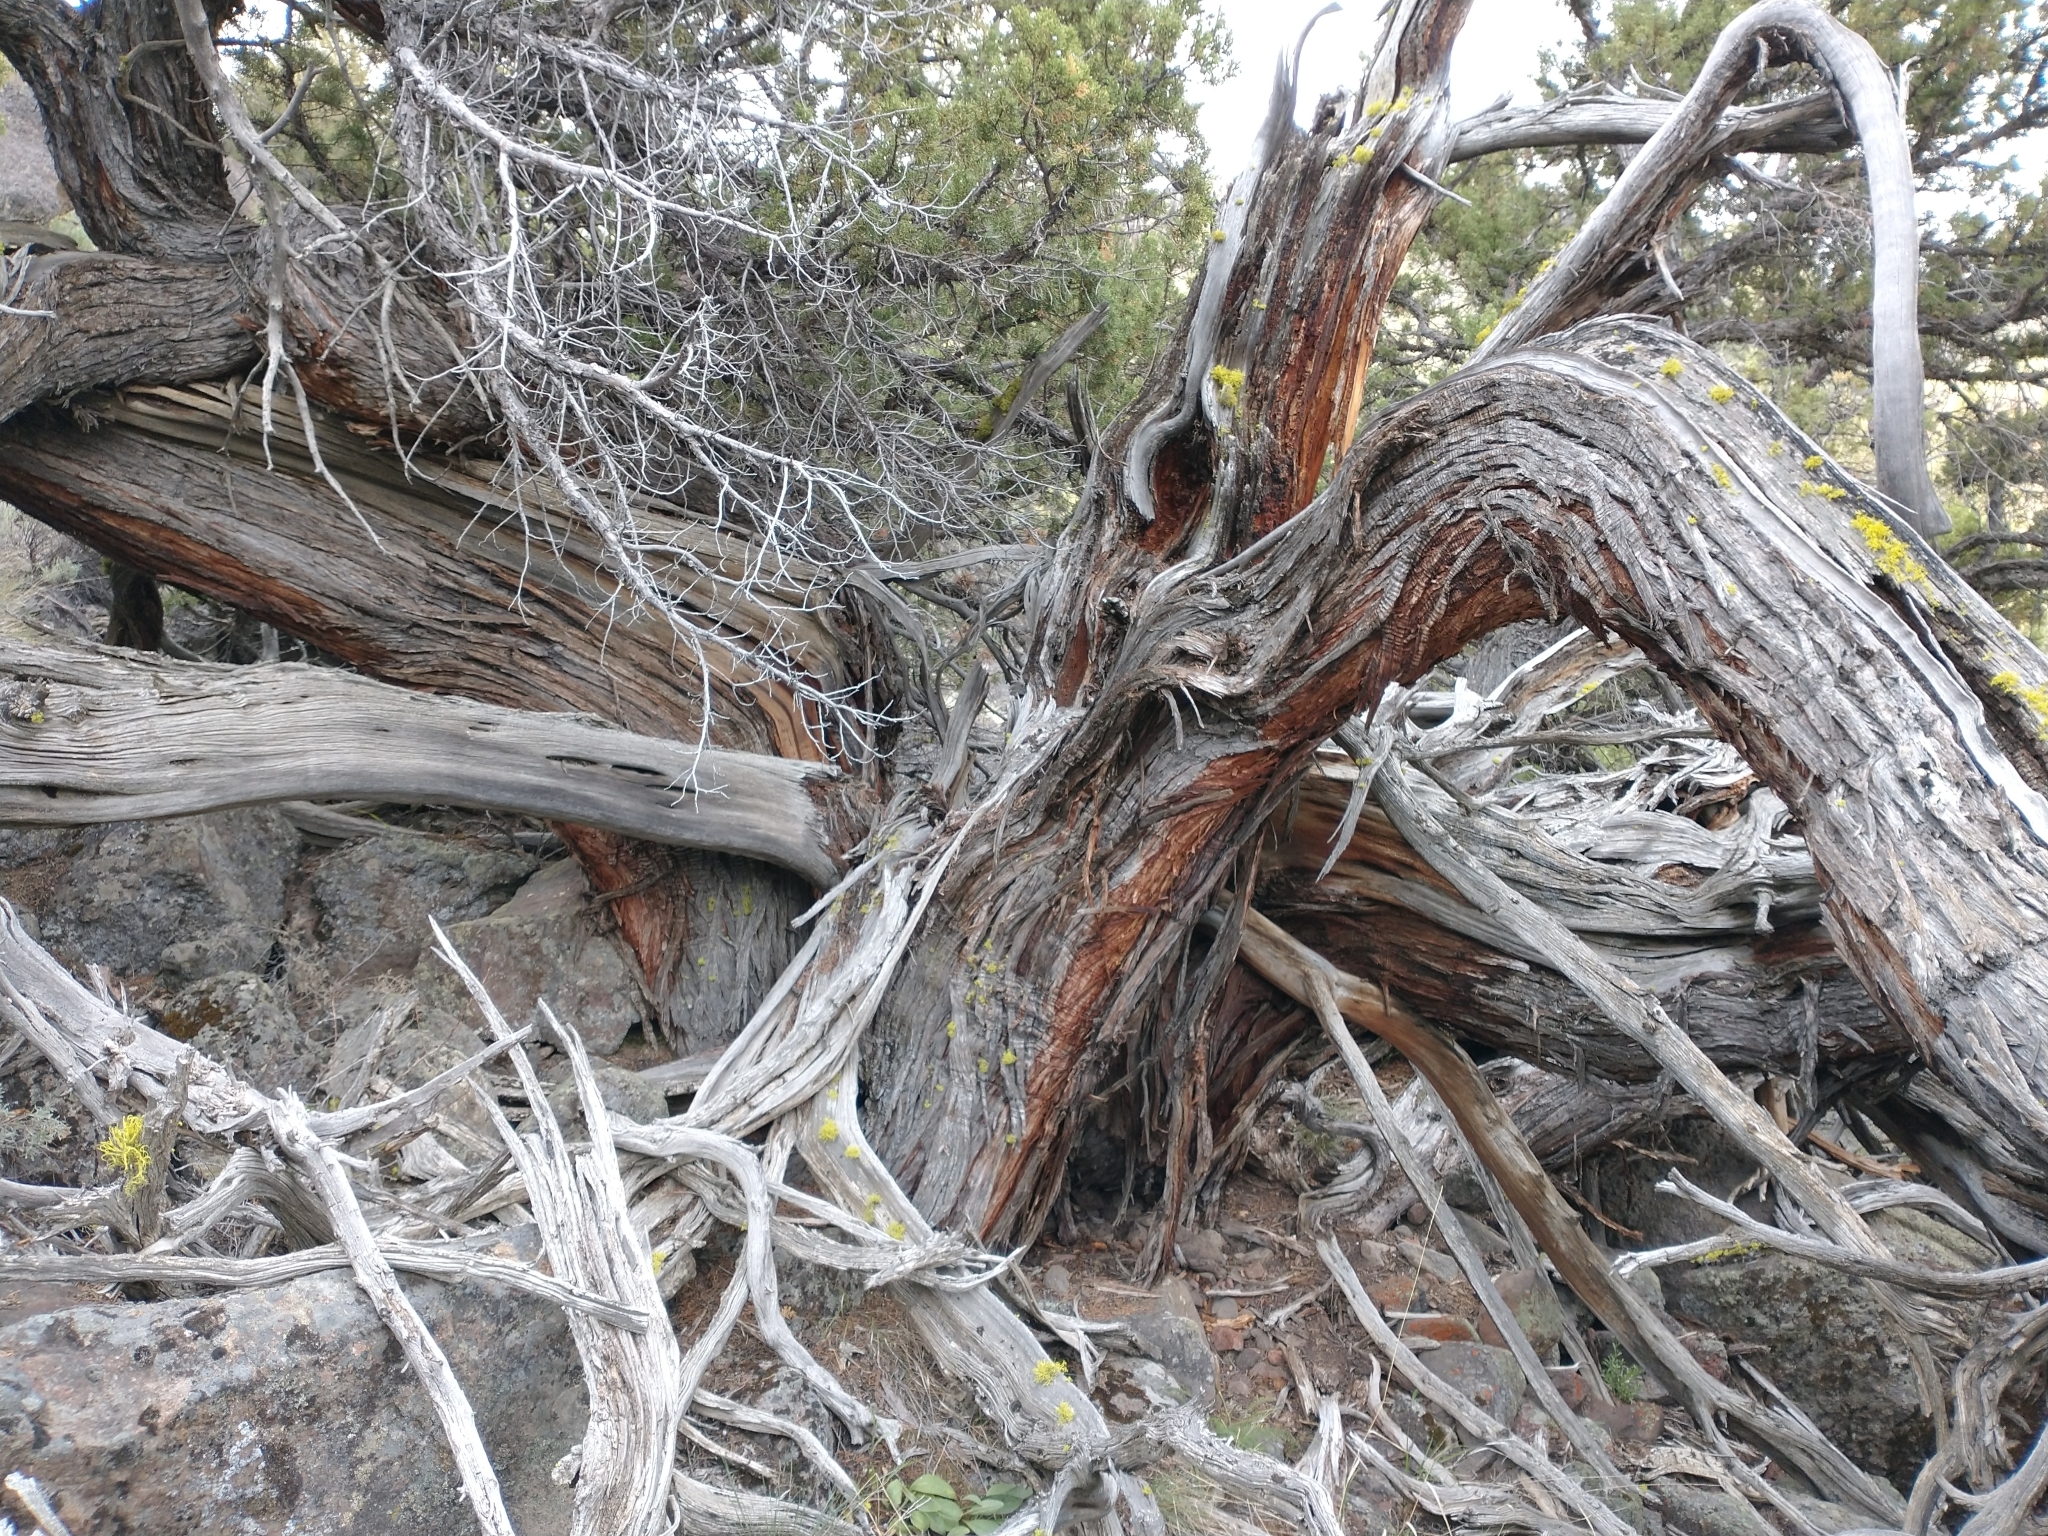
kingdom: Plantae
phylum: Tracheophyta
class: Pinopsida
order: Pinales
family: Cupressaceae
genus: Juniperus
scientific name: Juniperus occidentalis
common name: Western juniper
